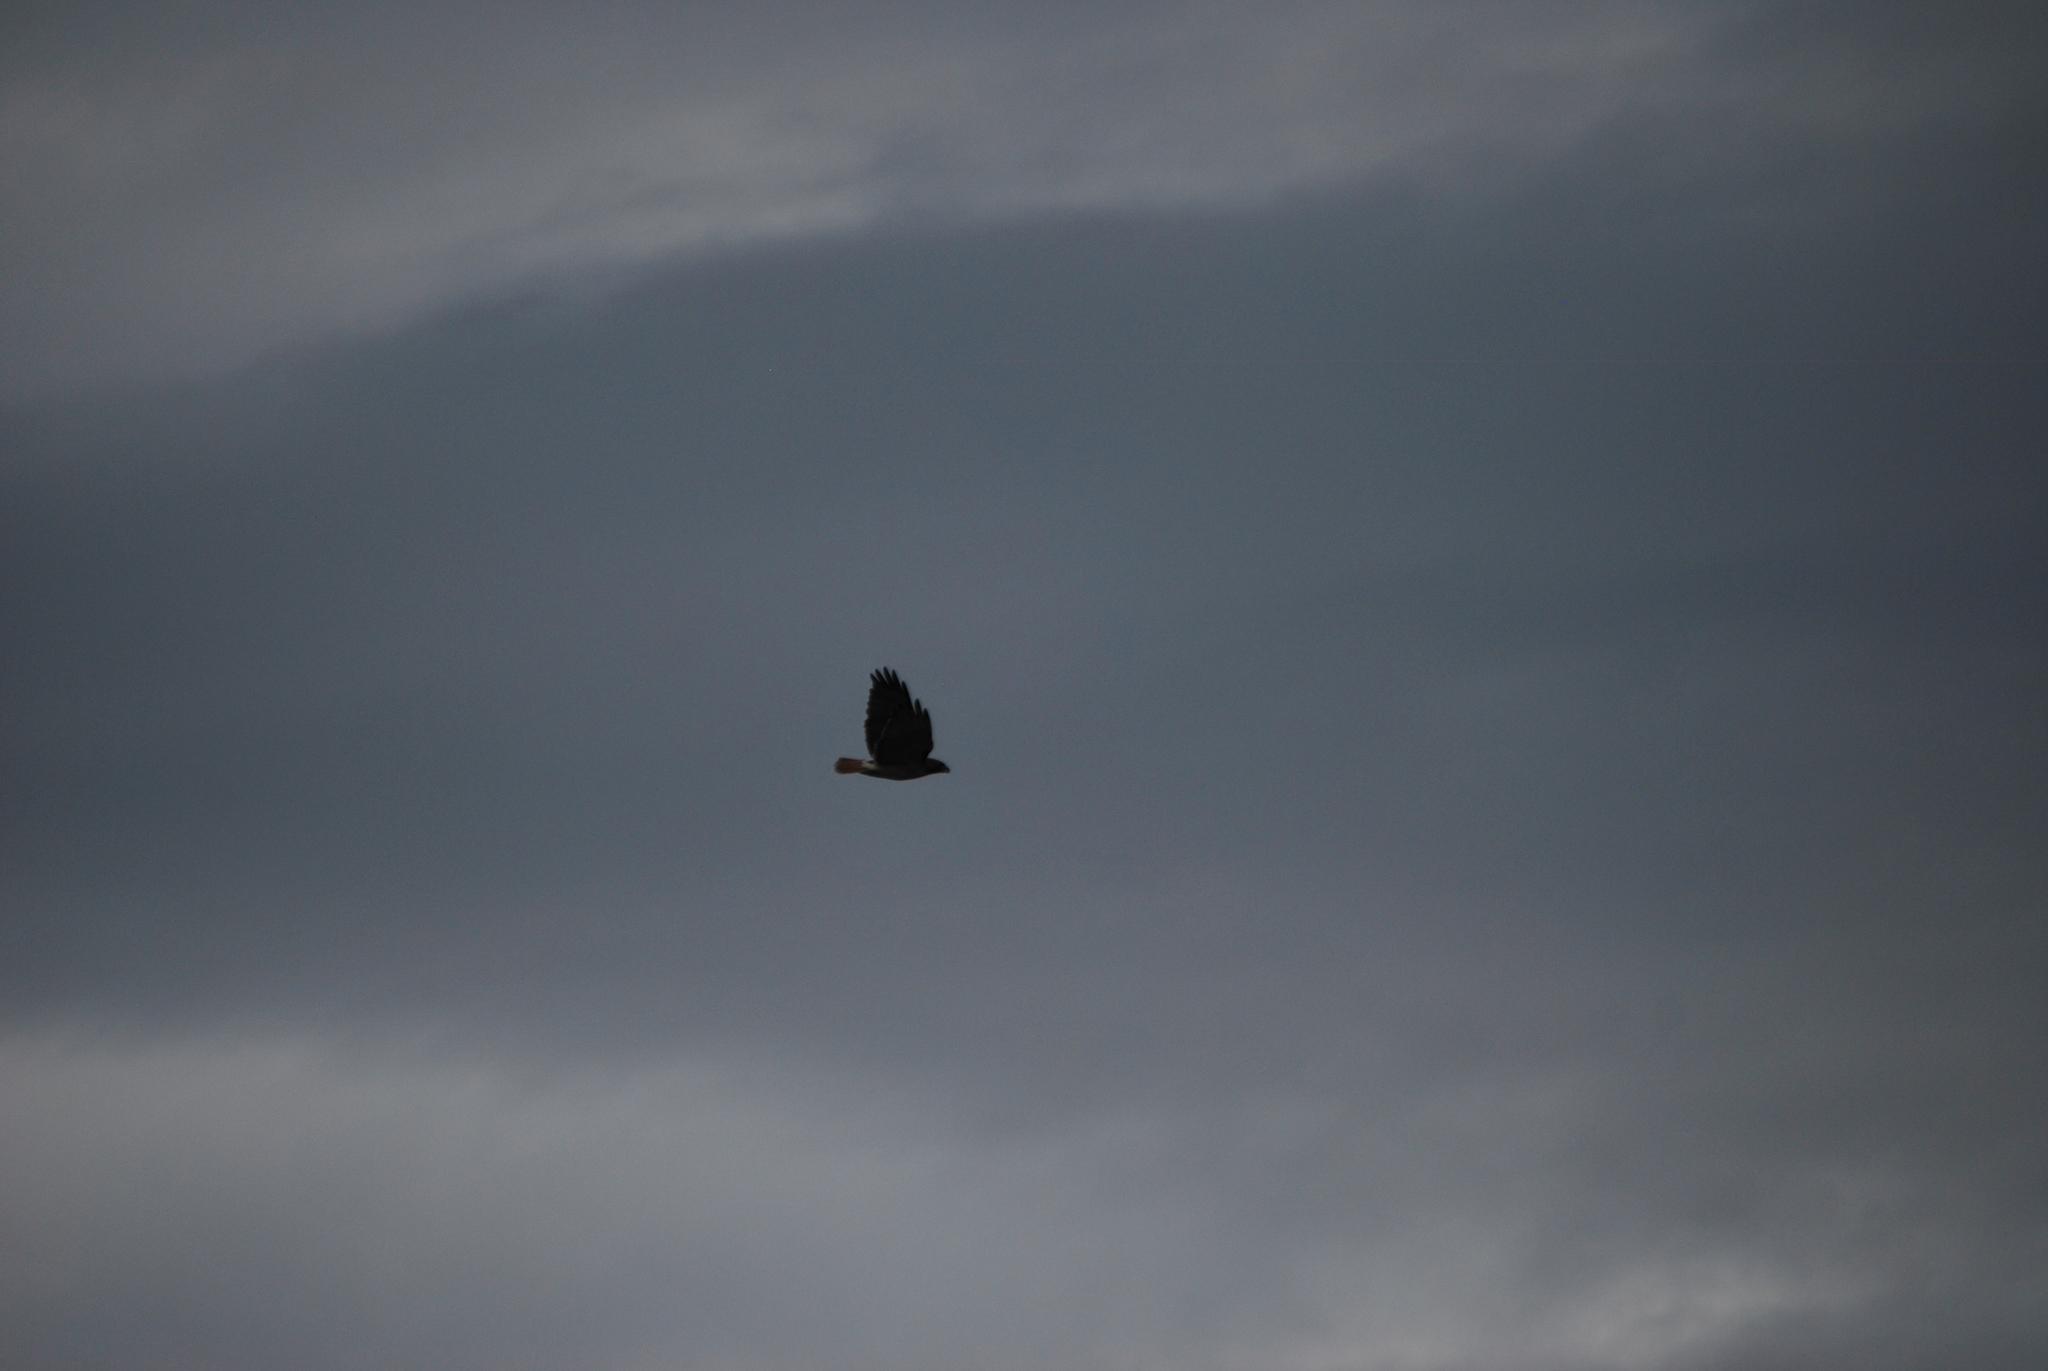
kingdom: Animalia
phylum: Chordata
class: Aves
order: Accipitriformes
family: Accipitridae
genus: Buteo
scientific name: Buteo jamaicensis
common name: Red-tailed hawk
